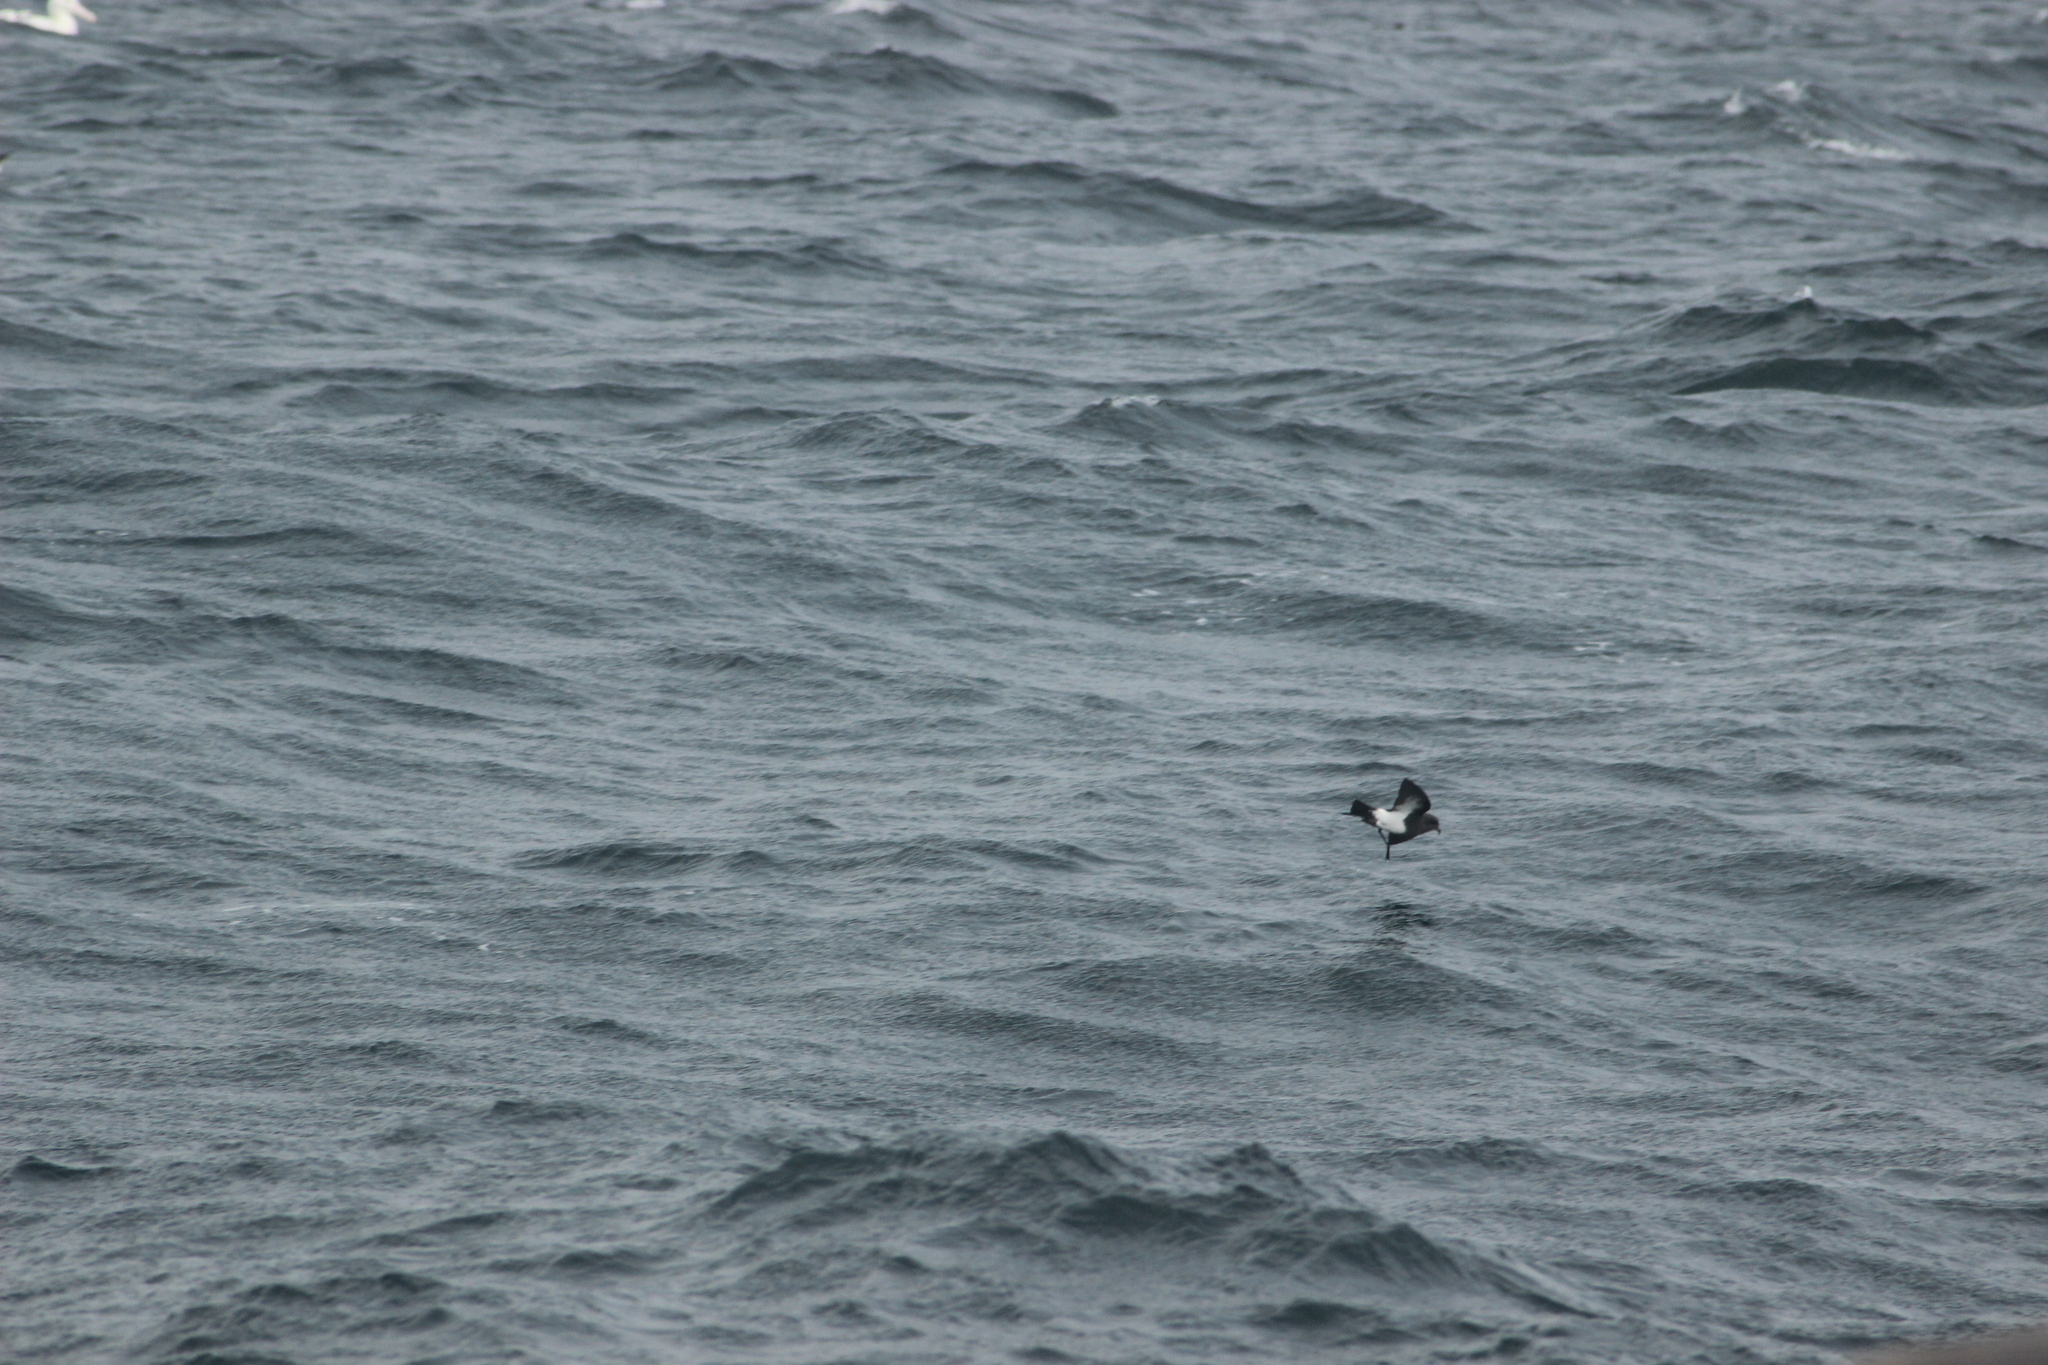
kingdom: Animalia
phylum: Chordata
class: Aves
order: Procellariiformes
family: Hydrobatidae
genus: Oceanites
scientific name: Oceanites oceanicus
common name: Wilson's storm petrel
